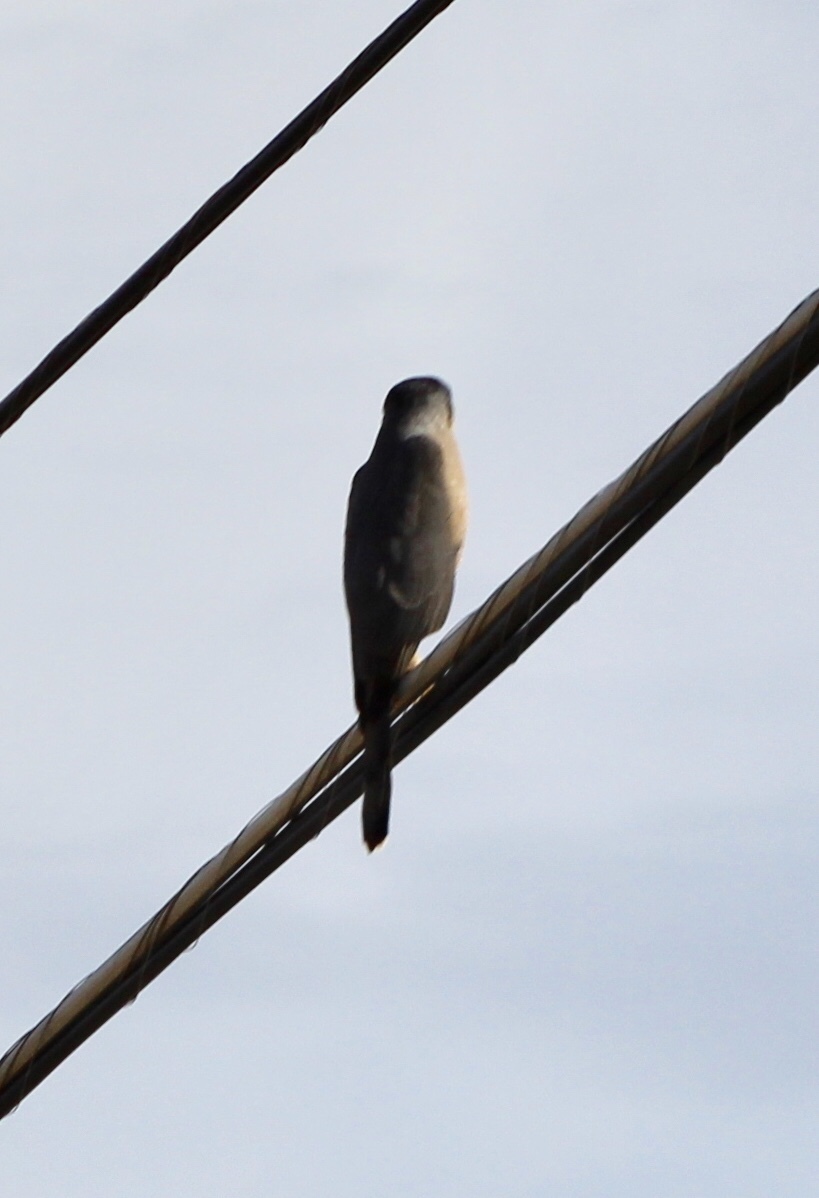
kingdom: Animalia
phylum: Chordata
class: Aves
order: Accipitriformes
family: Accipitridae
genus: Accipiter
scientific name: Accipiter cooperii
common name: Cooper's hawk
